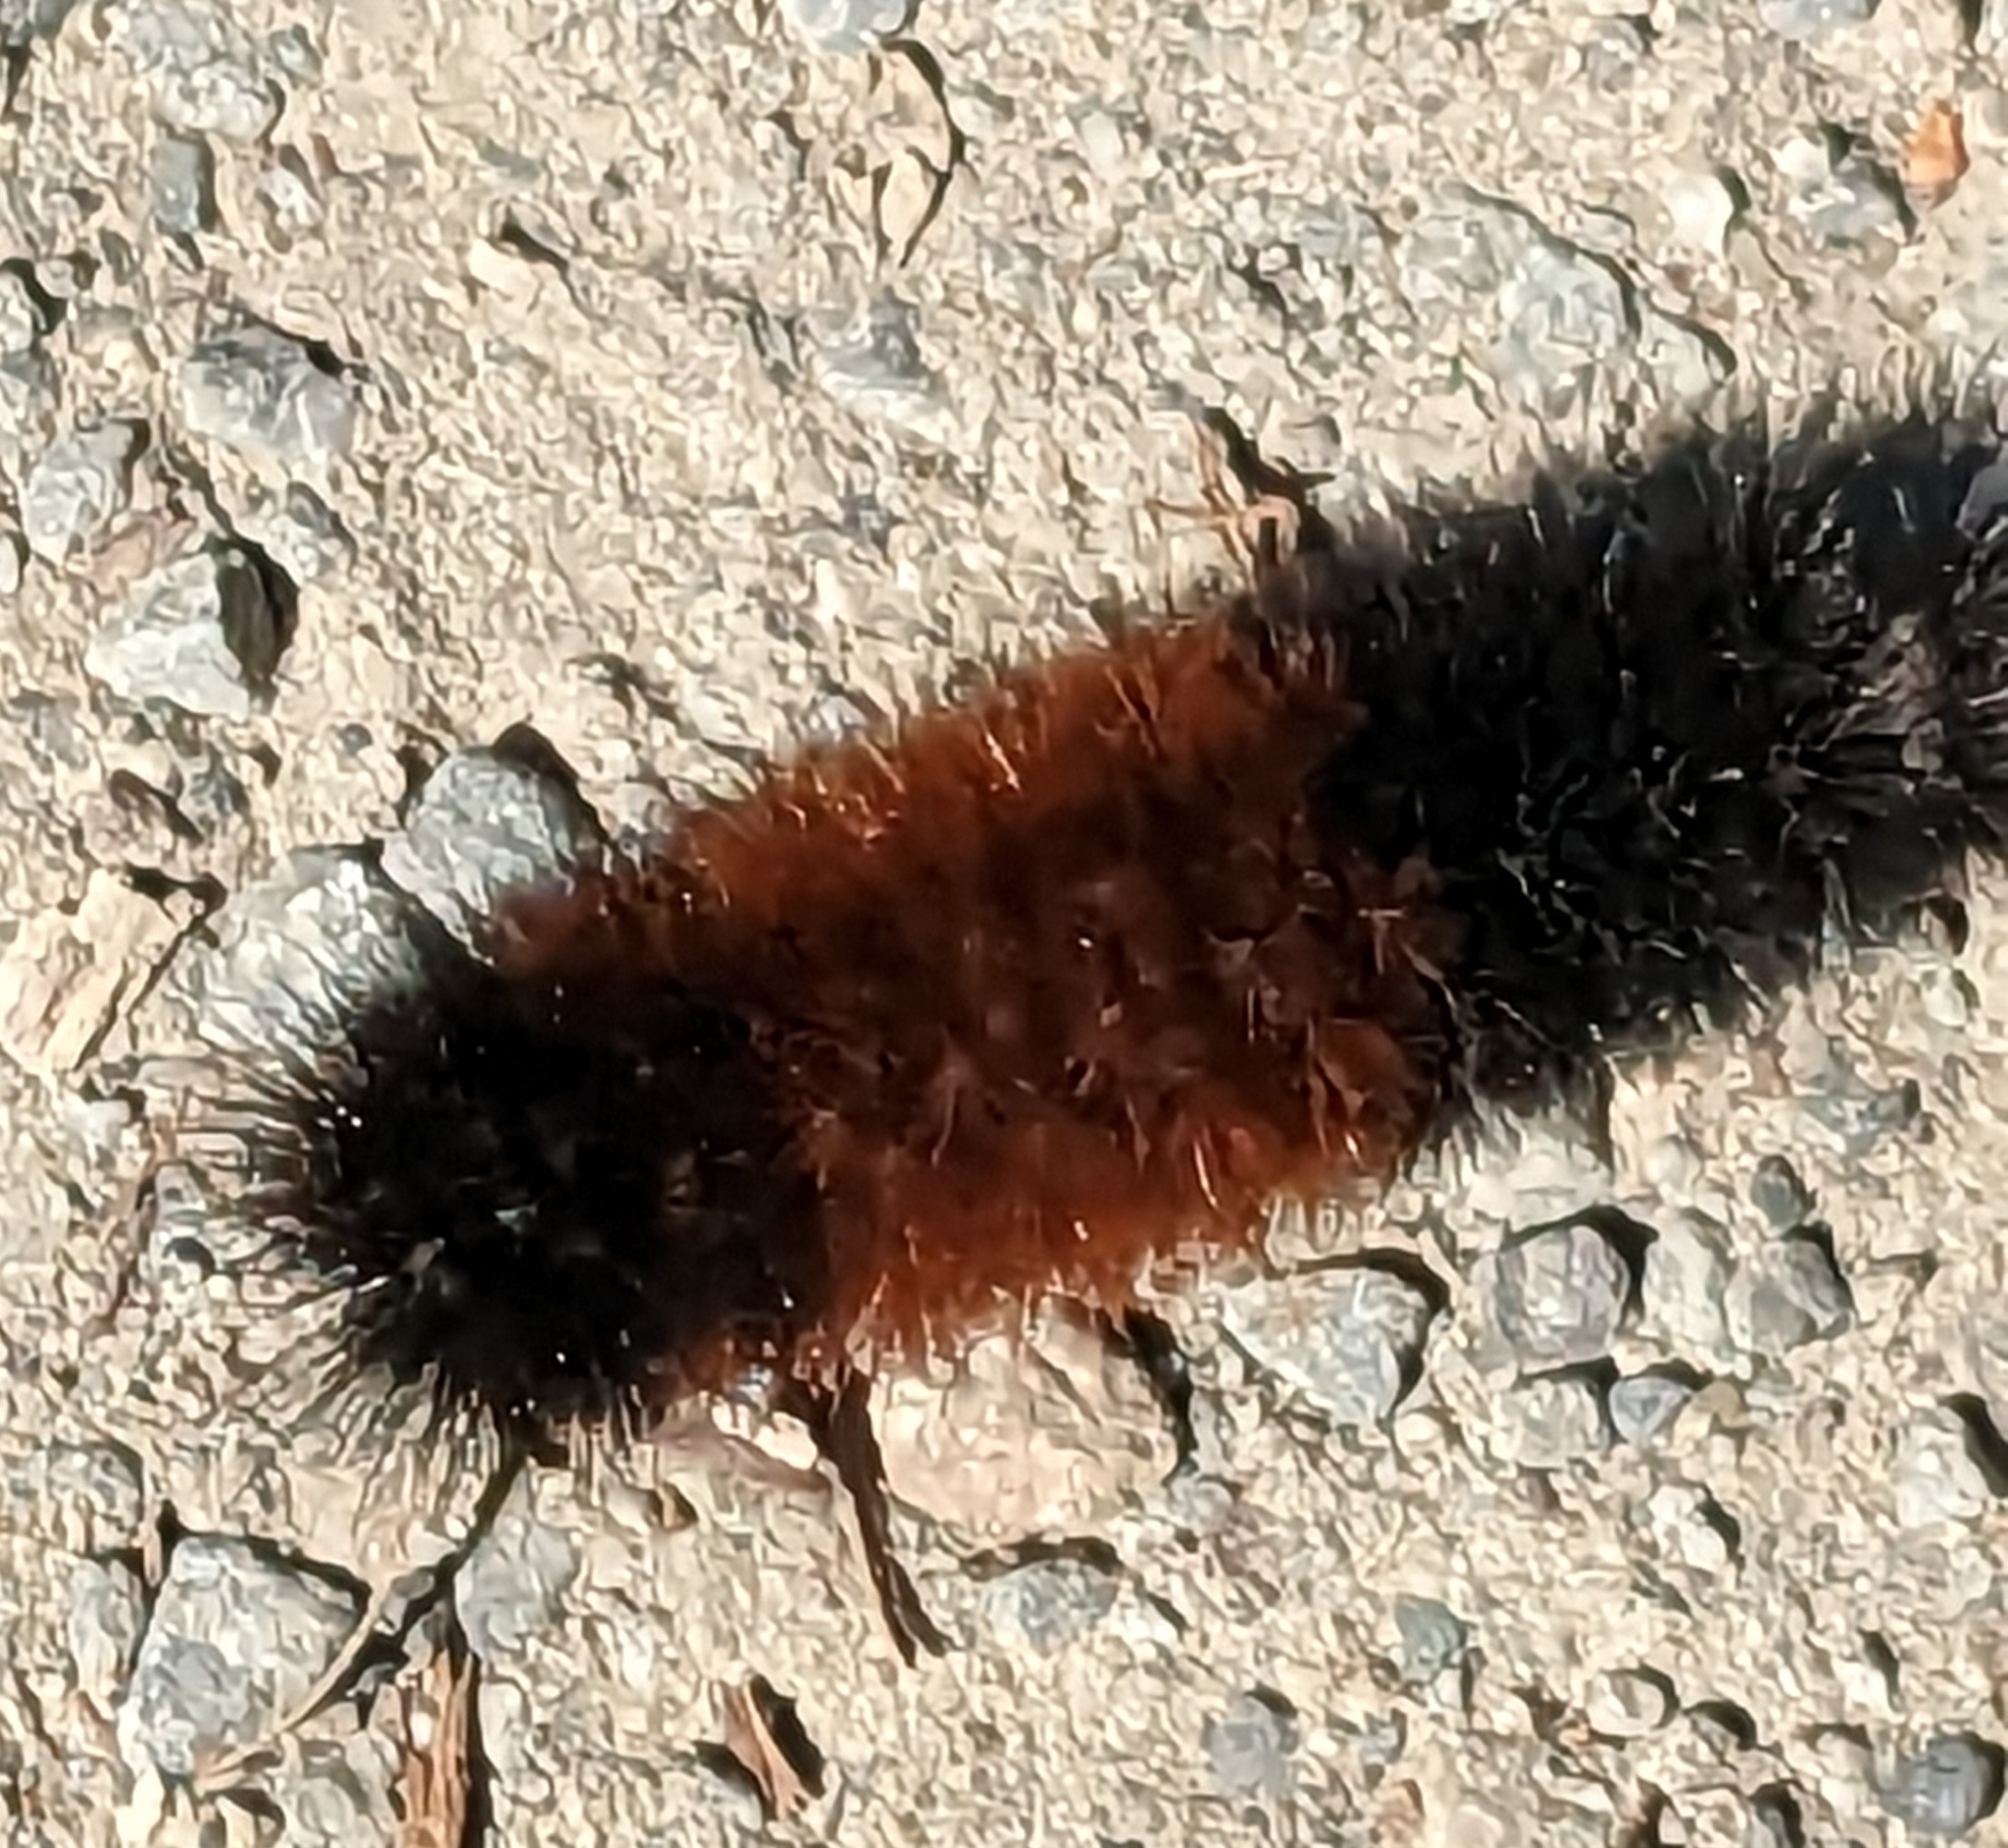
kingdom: Animalia
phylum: Arthropoda
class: Insecta
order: Lepidoptera
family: Erebidae
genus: Pyrrharctia
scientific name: Pyrrharctia isabella
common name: Isabella tiger moth
